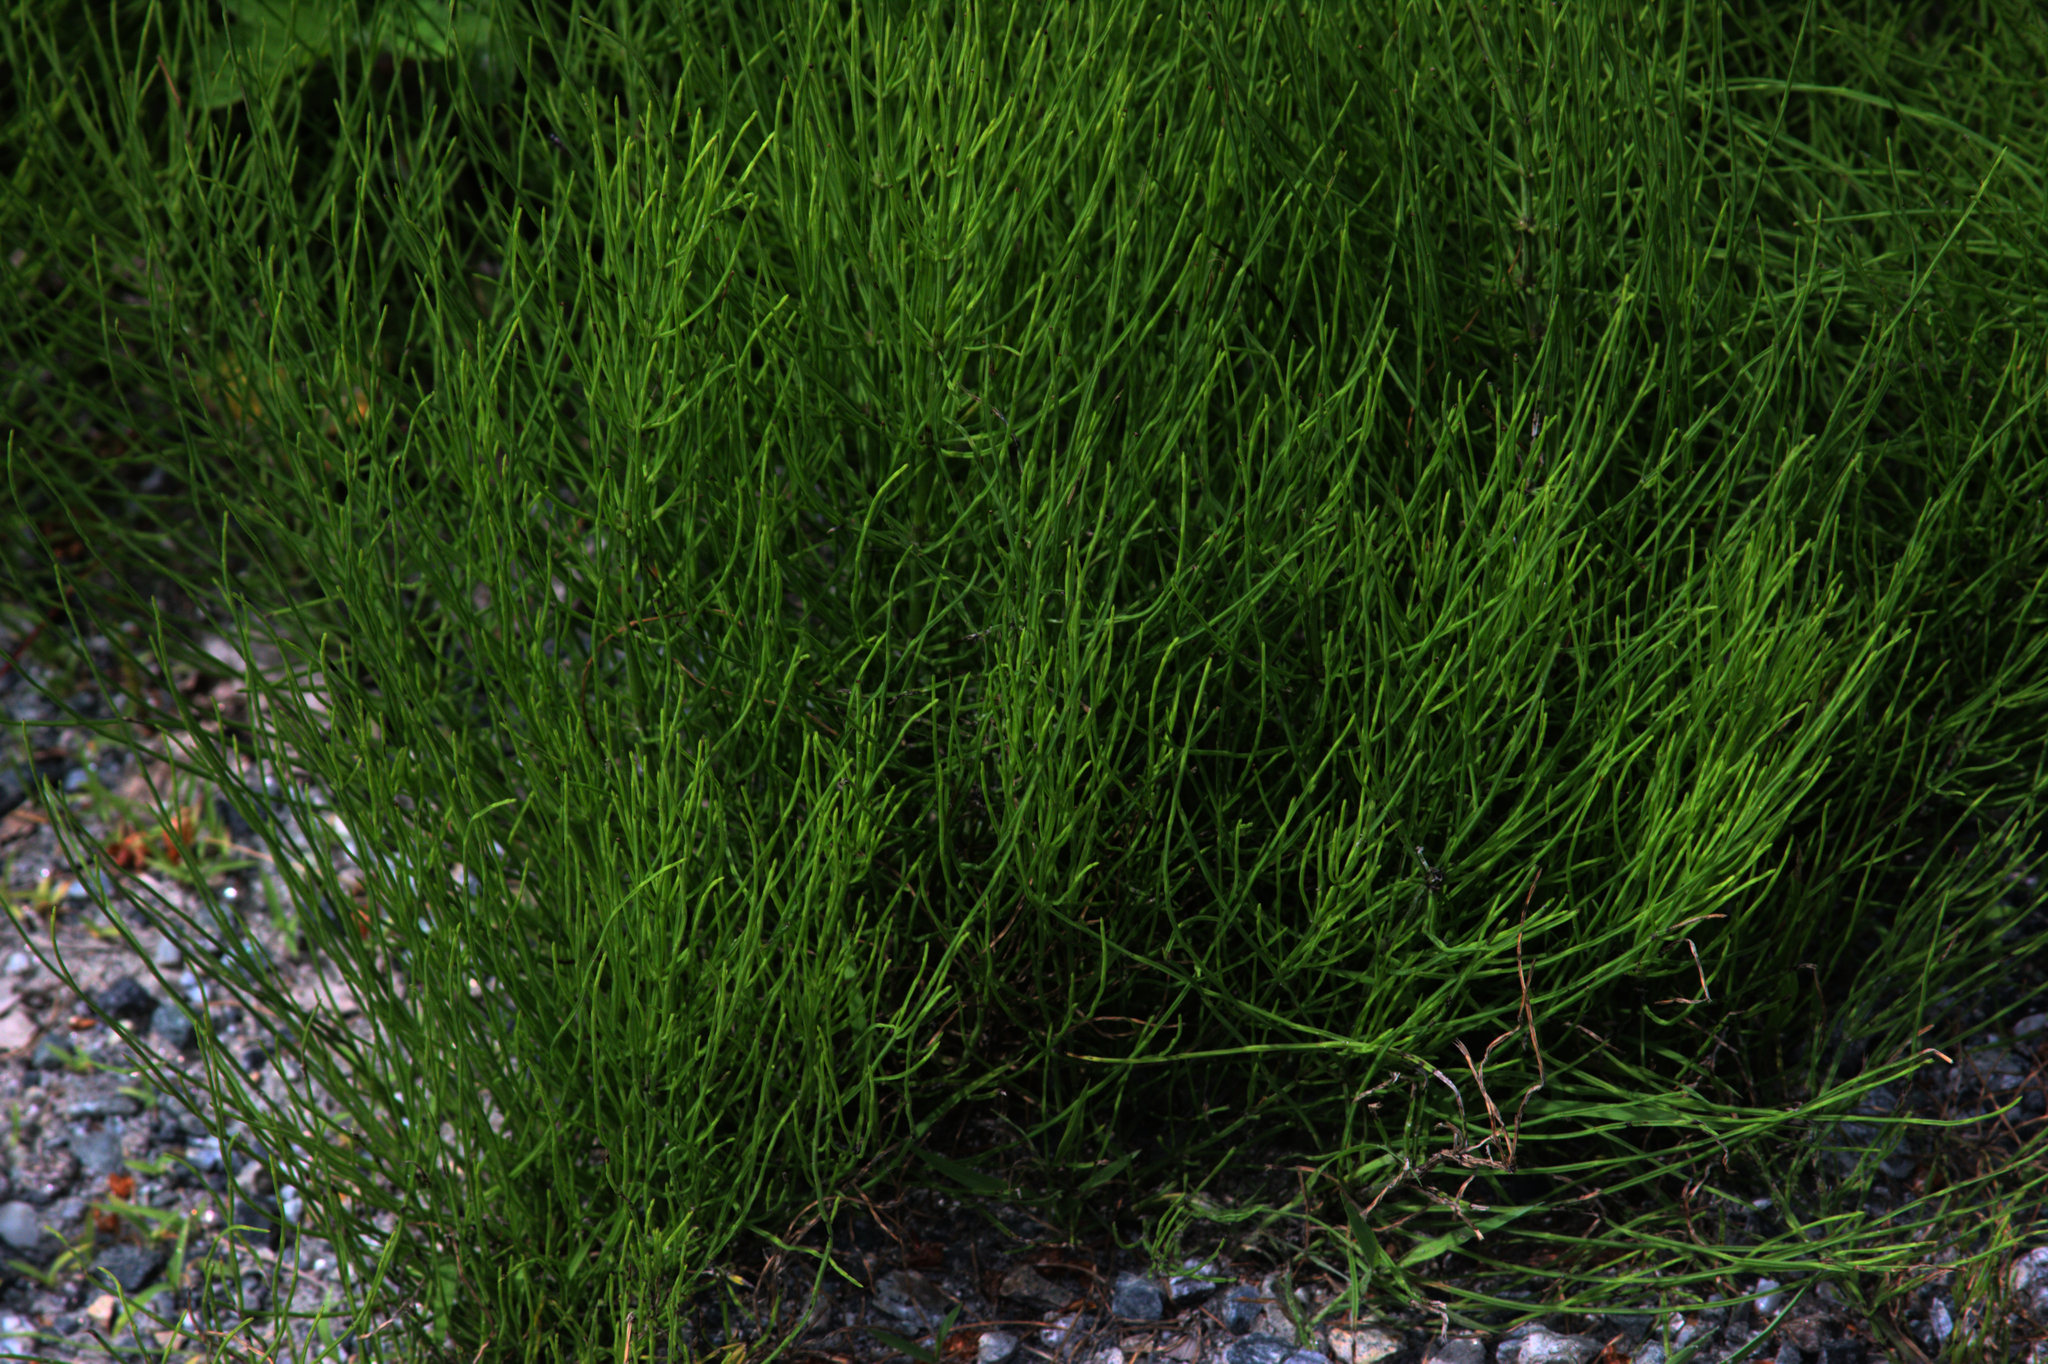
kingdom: Plantae
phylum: Tracheophyta
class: Polypodiopsida
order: Equisetales
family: Equisetaceae
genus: Equisetum
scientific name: Equisetum arvense
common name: Field horsetail
